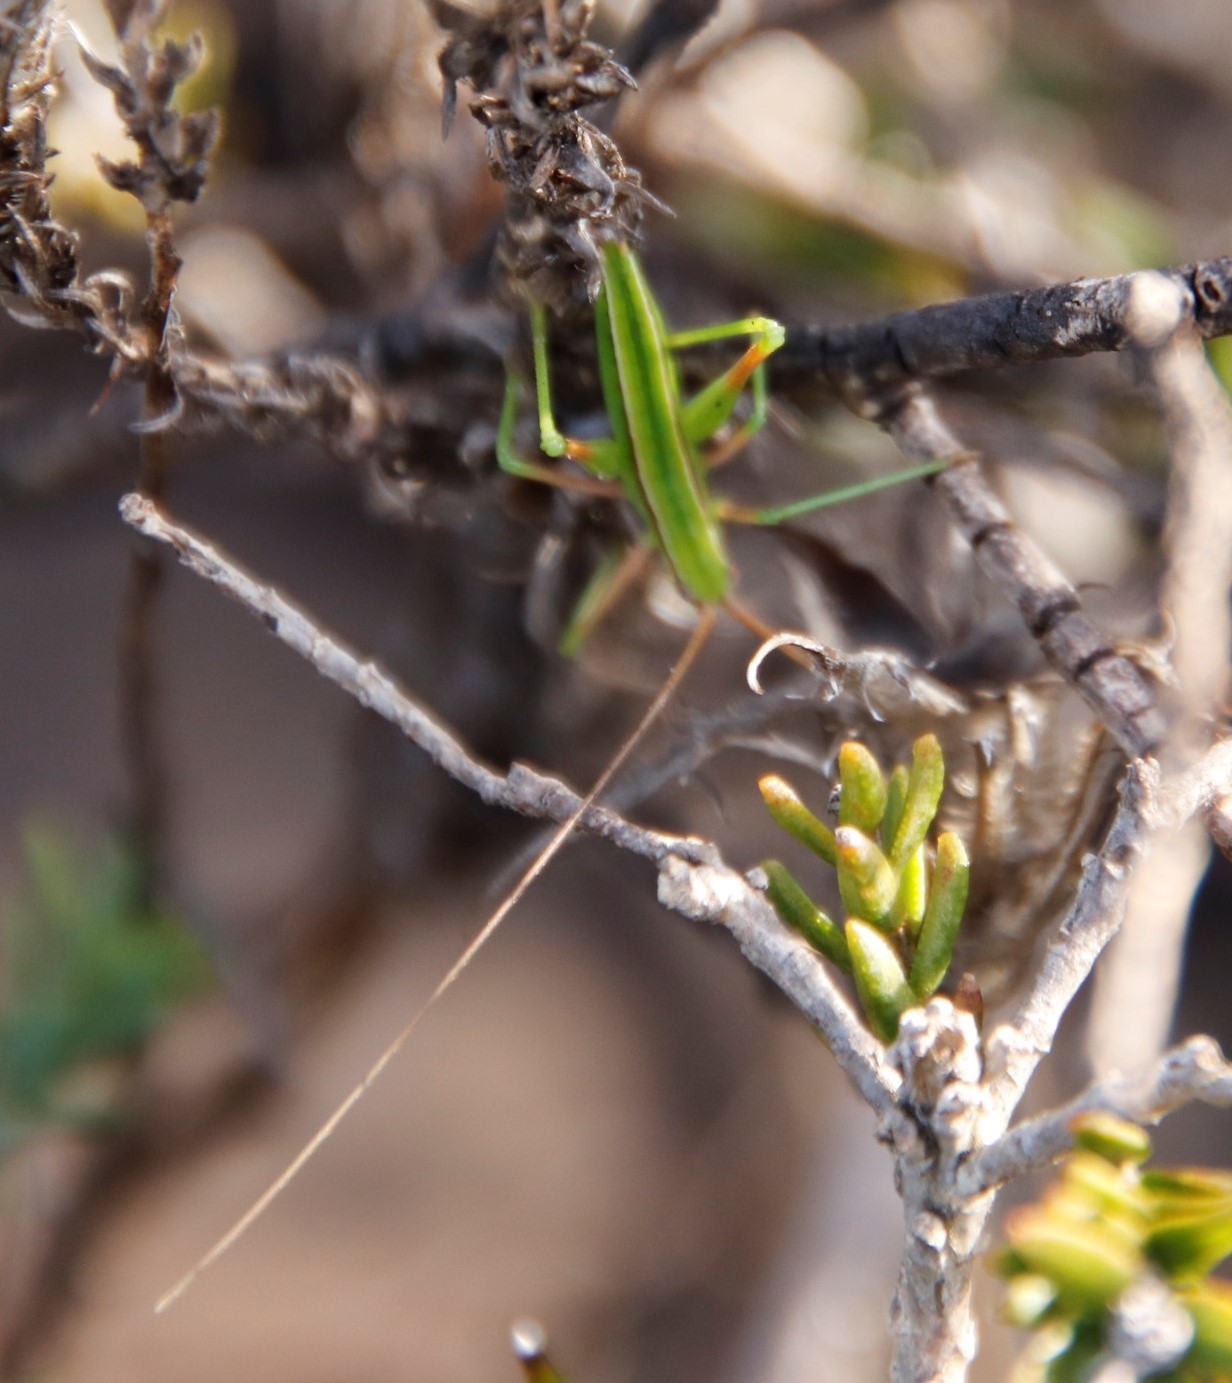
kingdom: Animalia
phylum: Arthropoda
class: Insecta
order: Orthoptera
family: Tettigoniidae
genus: Brinckiella
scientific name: Brinckiella aptera
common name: Mute winter katydid
